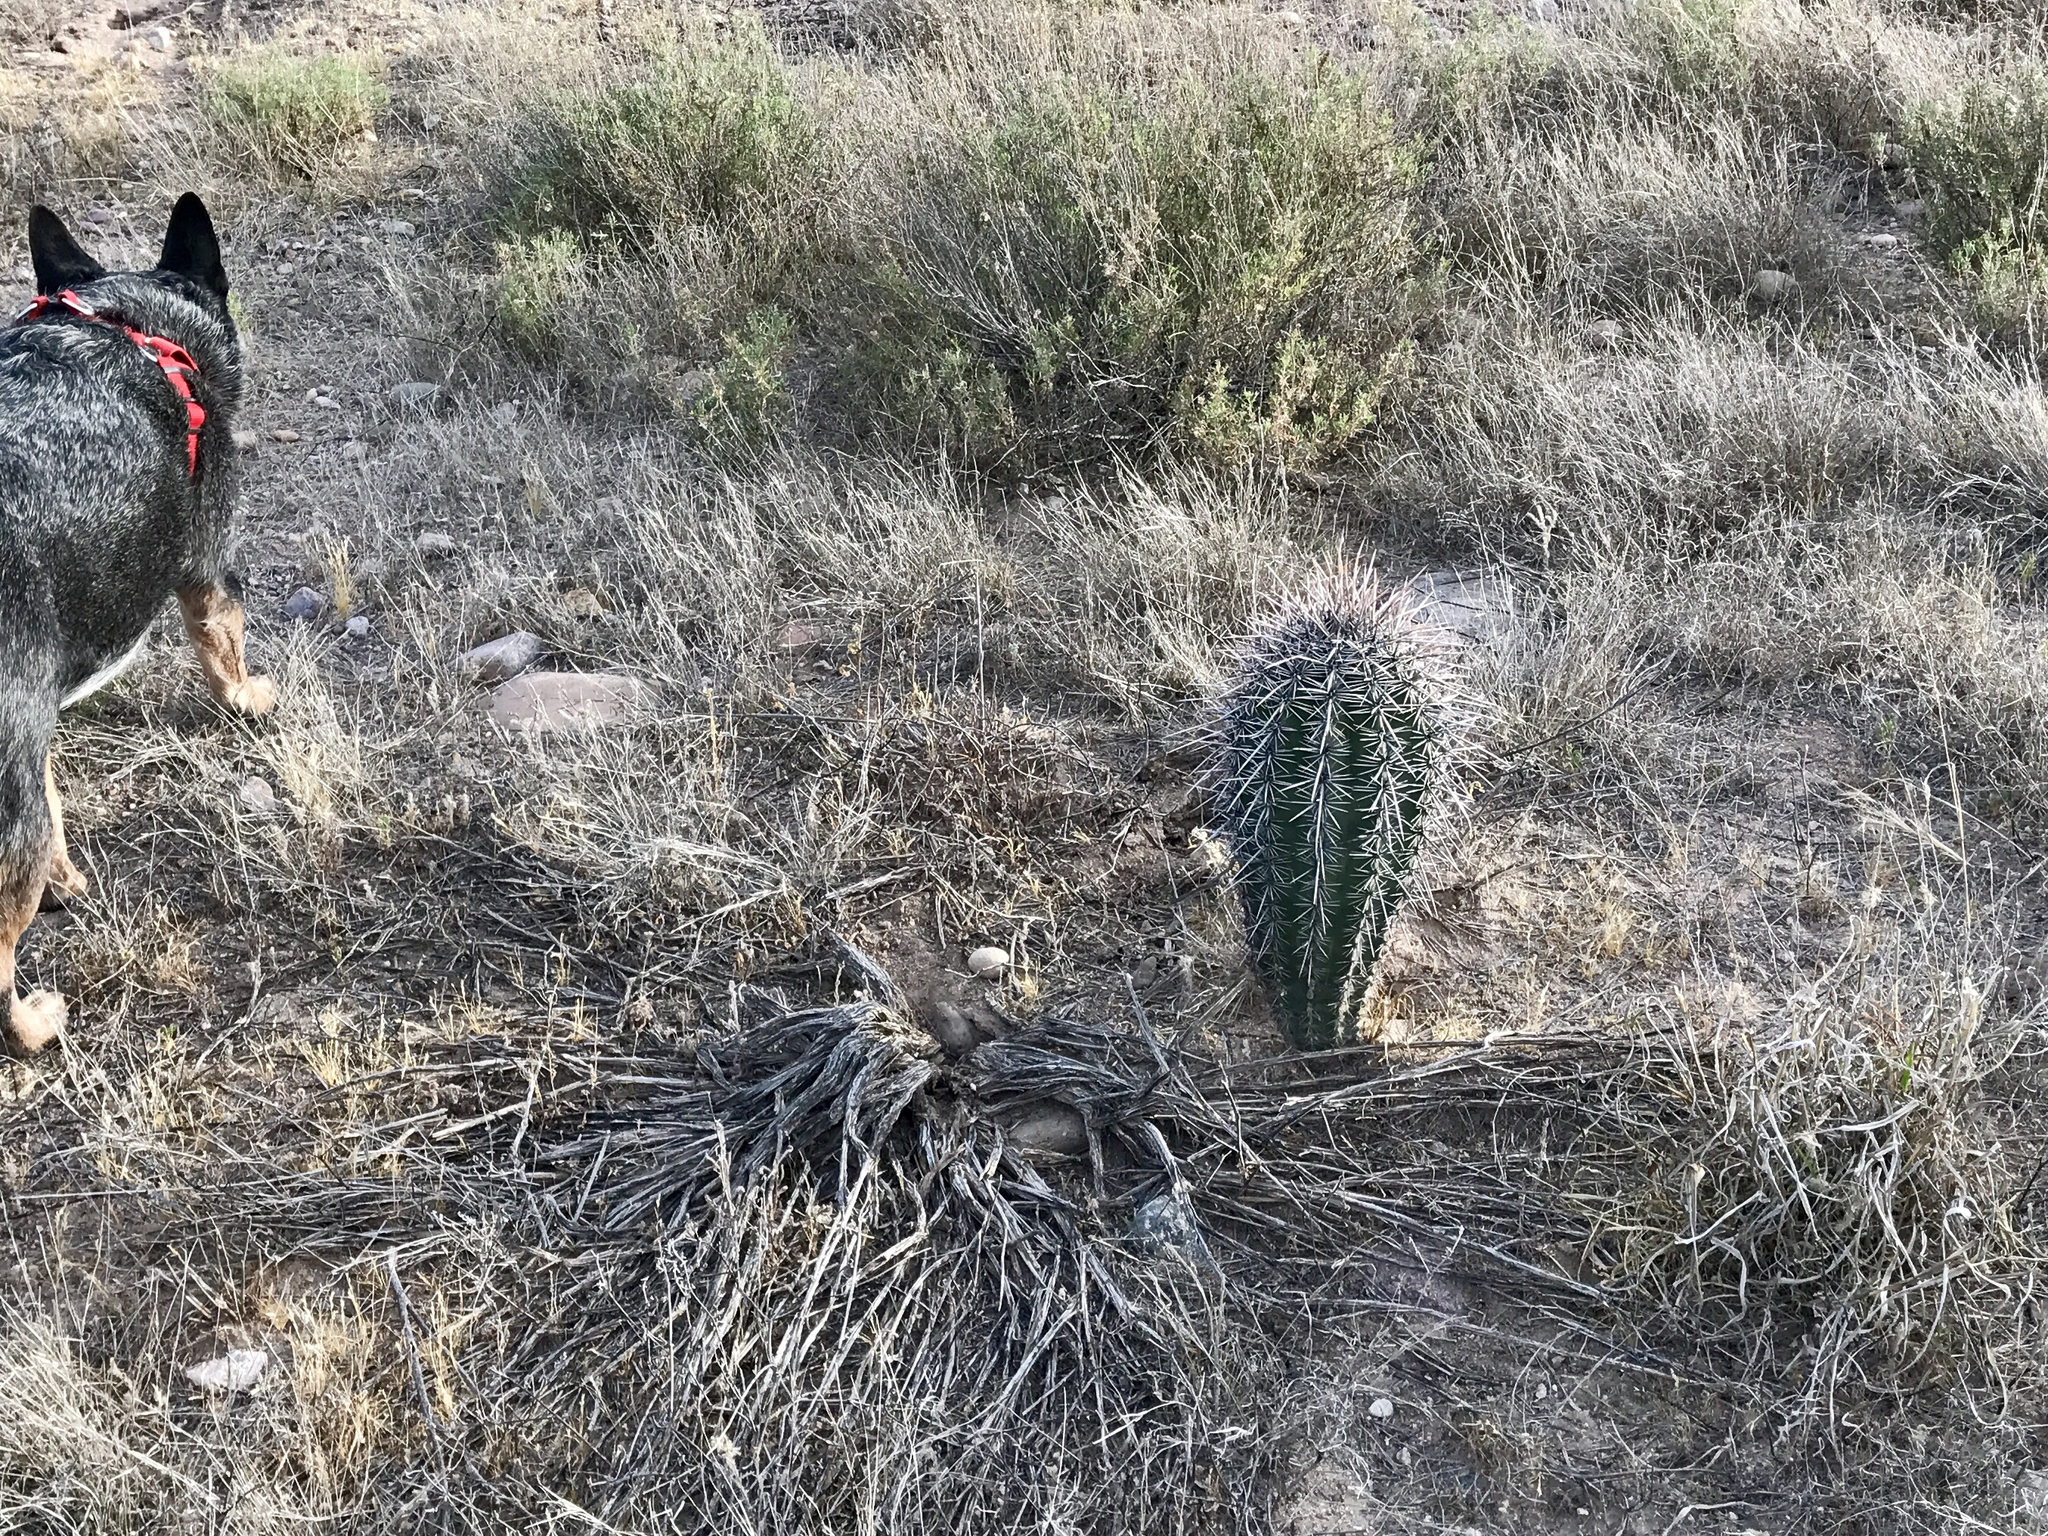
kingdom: Plantae
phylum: Tracheophyta
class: Magnoliopsida
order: Caryophyllales
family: Cactaceae
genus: Carnegiea
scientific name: Carnegiea gigantea
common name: Saguaro
